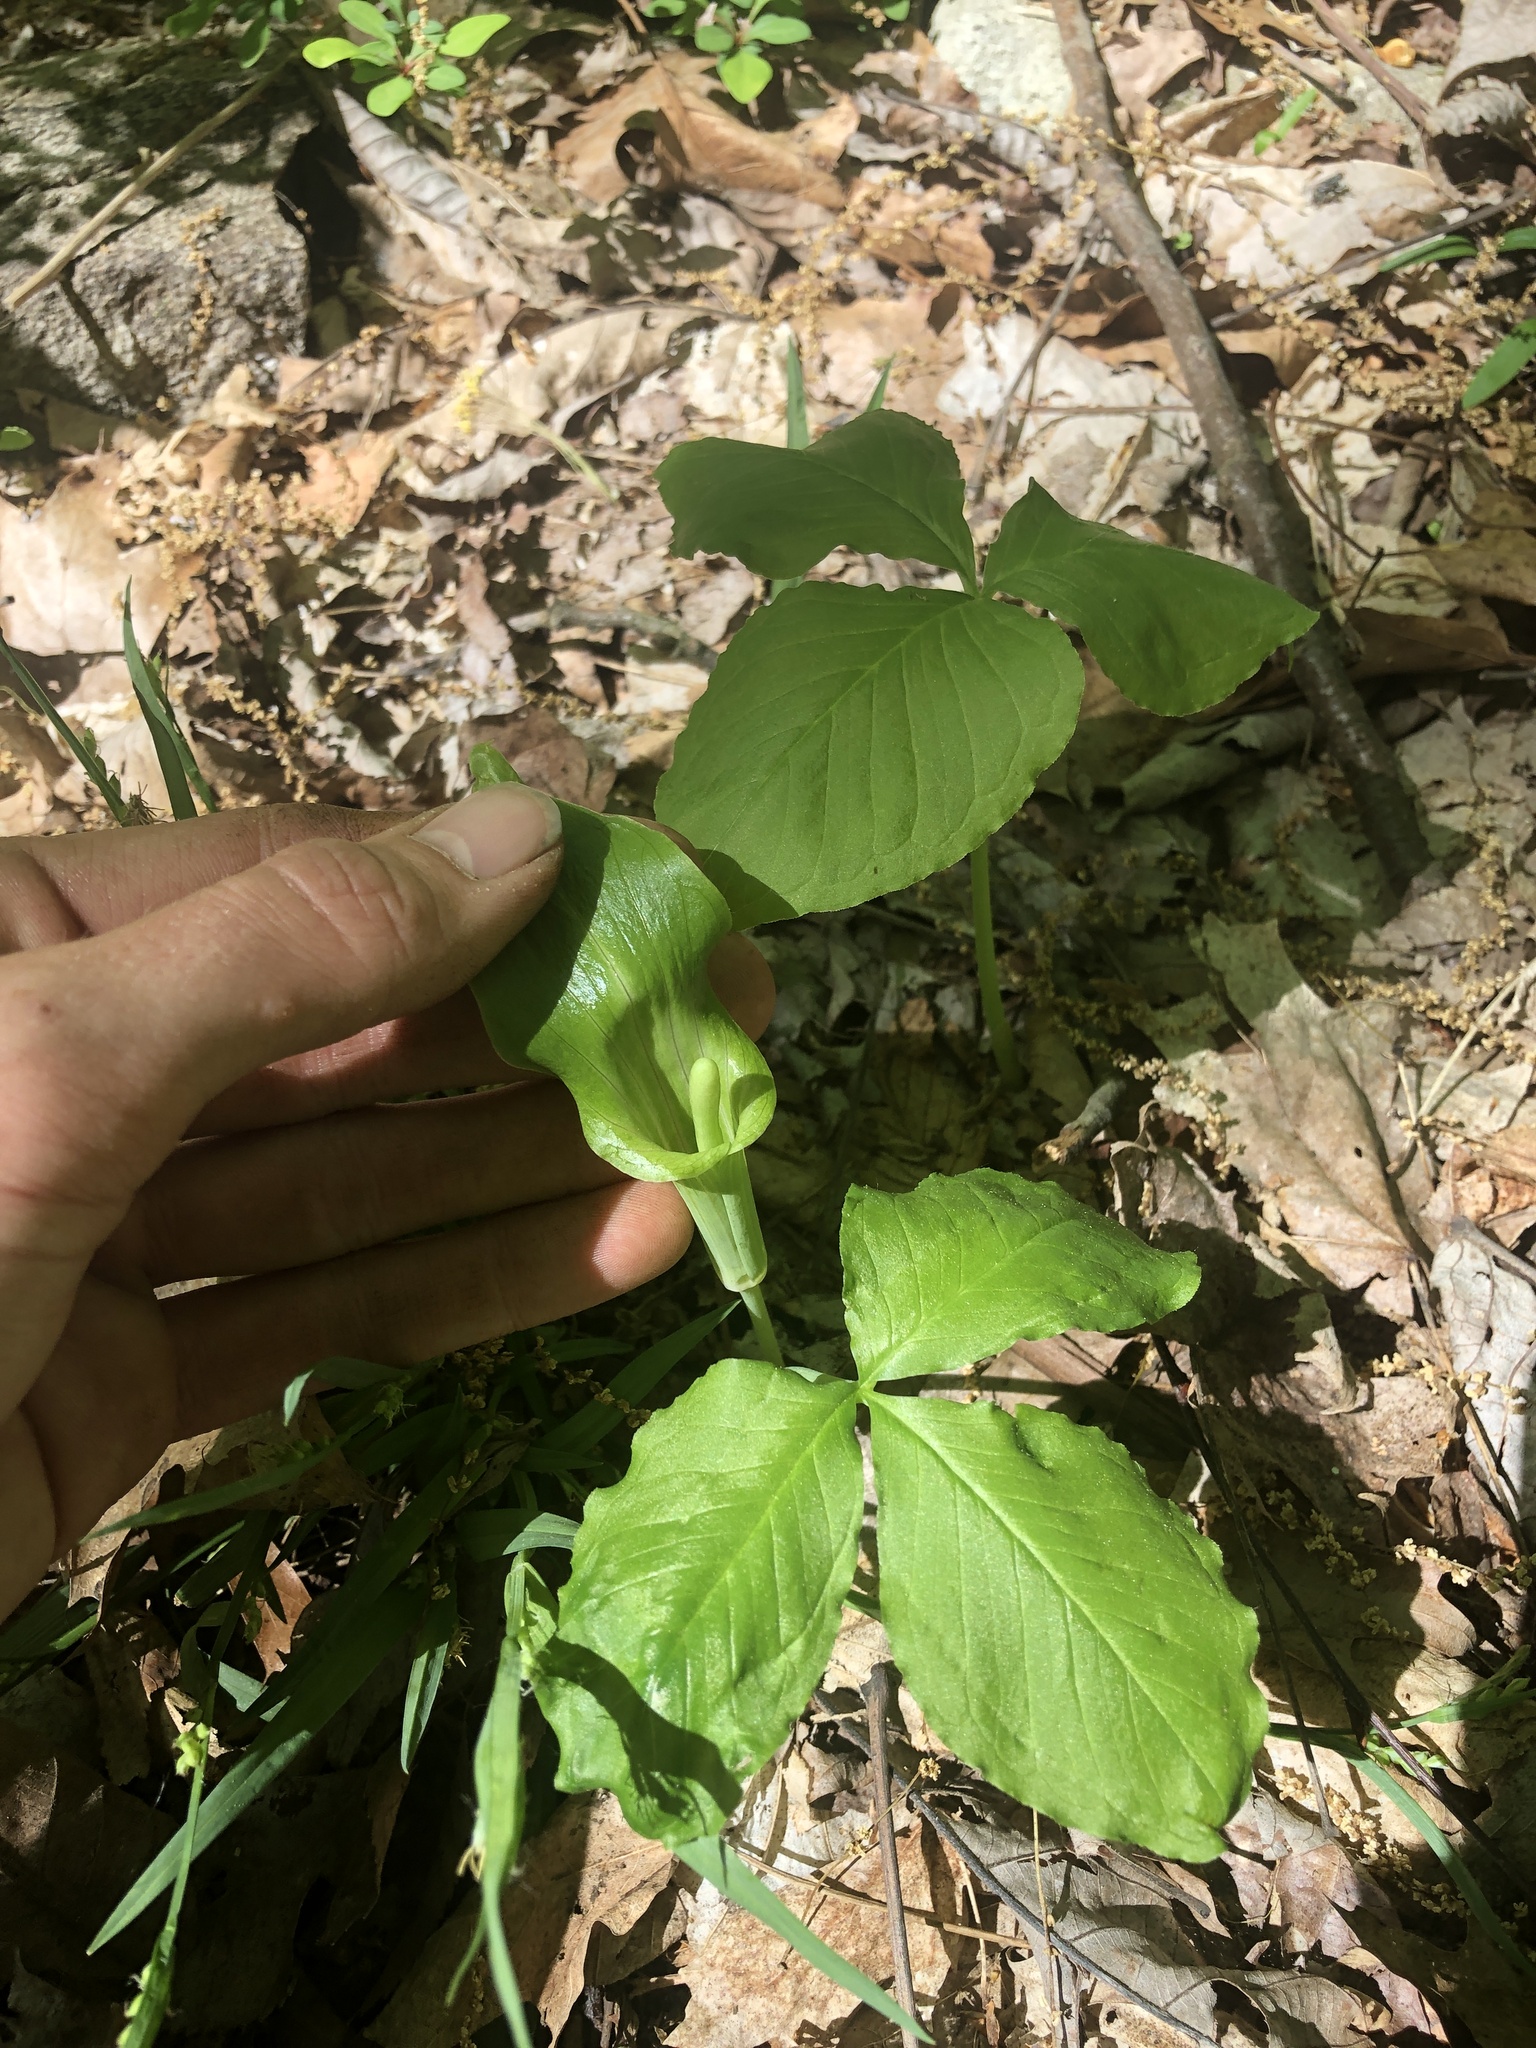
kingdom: Plantae
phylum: Tracheophyta
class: Liliopsida
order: Alismatales
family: Araceae
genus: Arisaema
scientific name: Arisaema triphyllum
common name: Jack-in-the-pulpit
